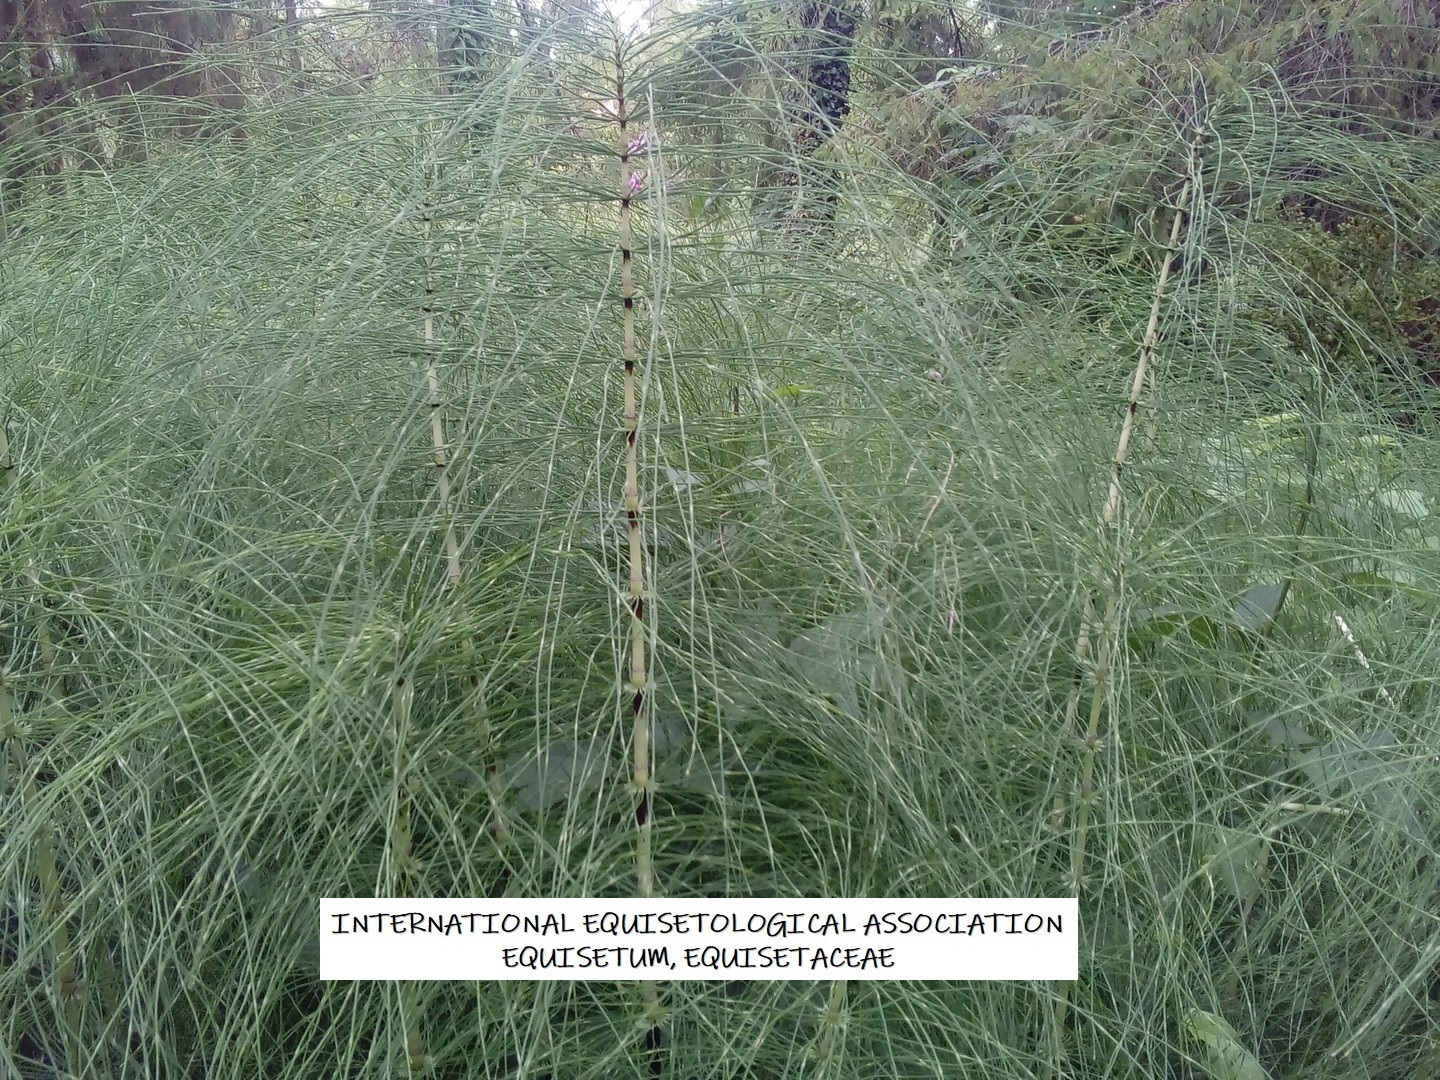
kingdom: Plantae
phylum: Tracheophyta
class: Polypodiopsida
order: Equisetales
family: Equisetaceae
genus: Equisetum
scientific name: Equisetum telmateia
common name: Great horsetail
